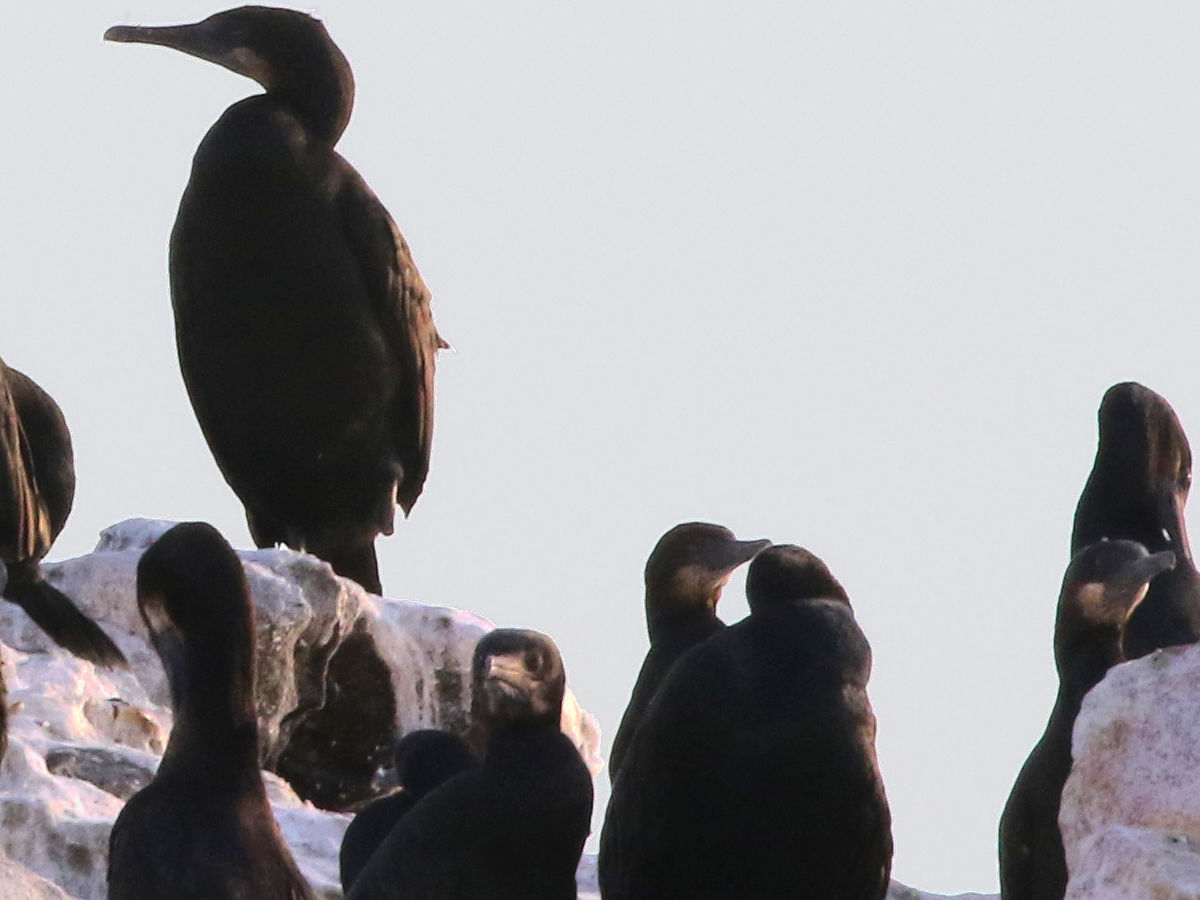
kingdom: Animalia
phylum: Chordata
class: Aves
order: Suliformes
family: Phalacrocoracidae
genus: Urile
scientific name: Urile penicillatus
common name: Brandt's cormorant
